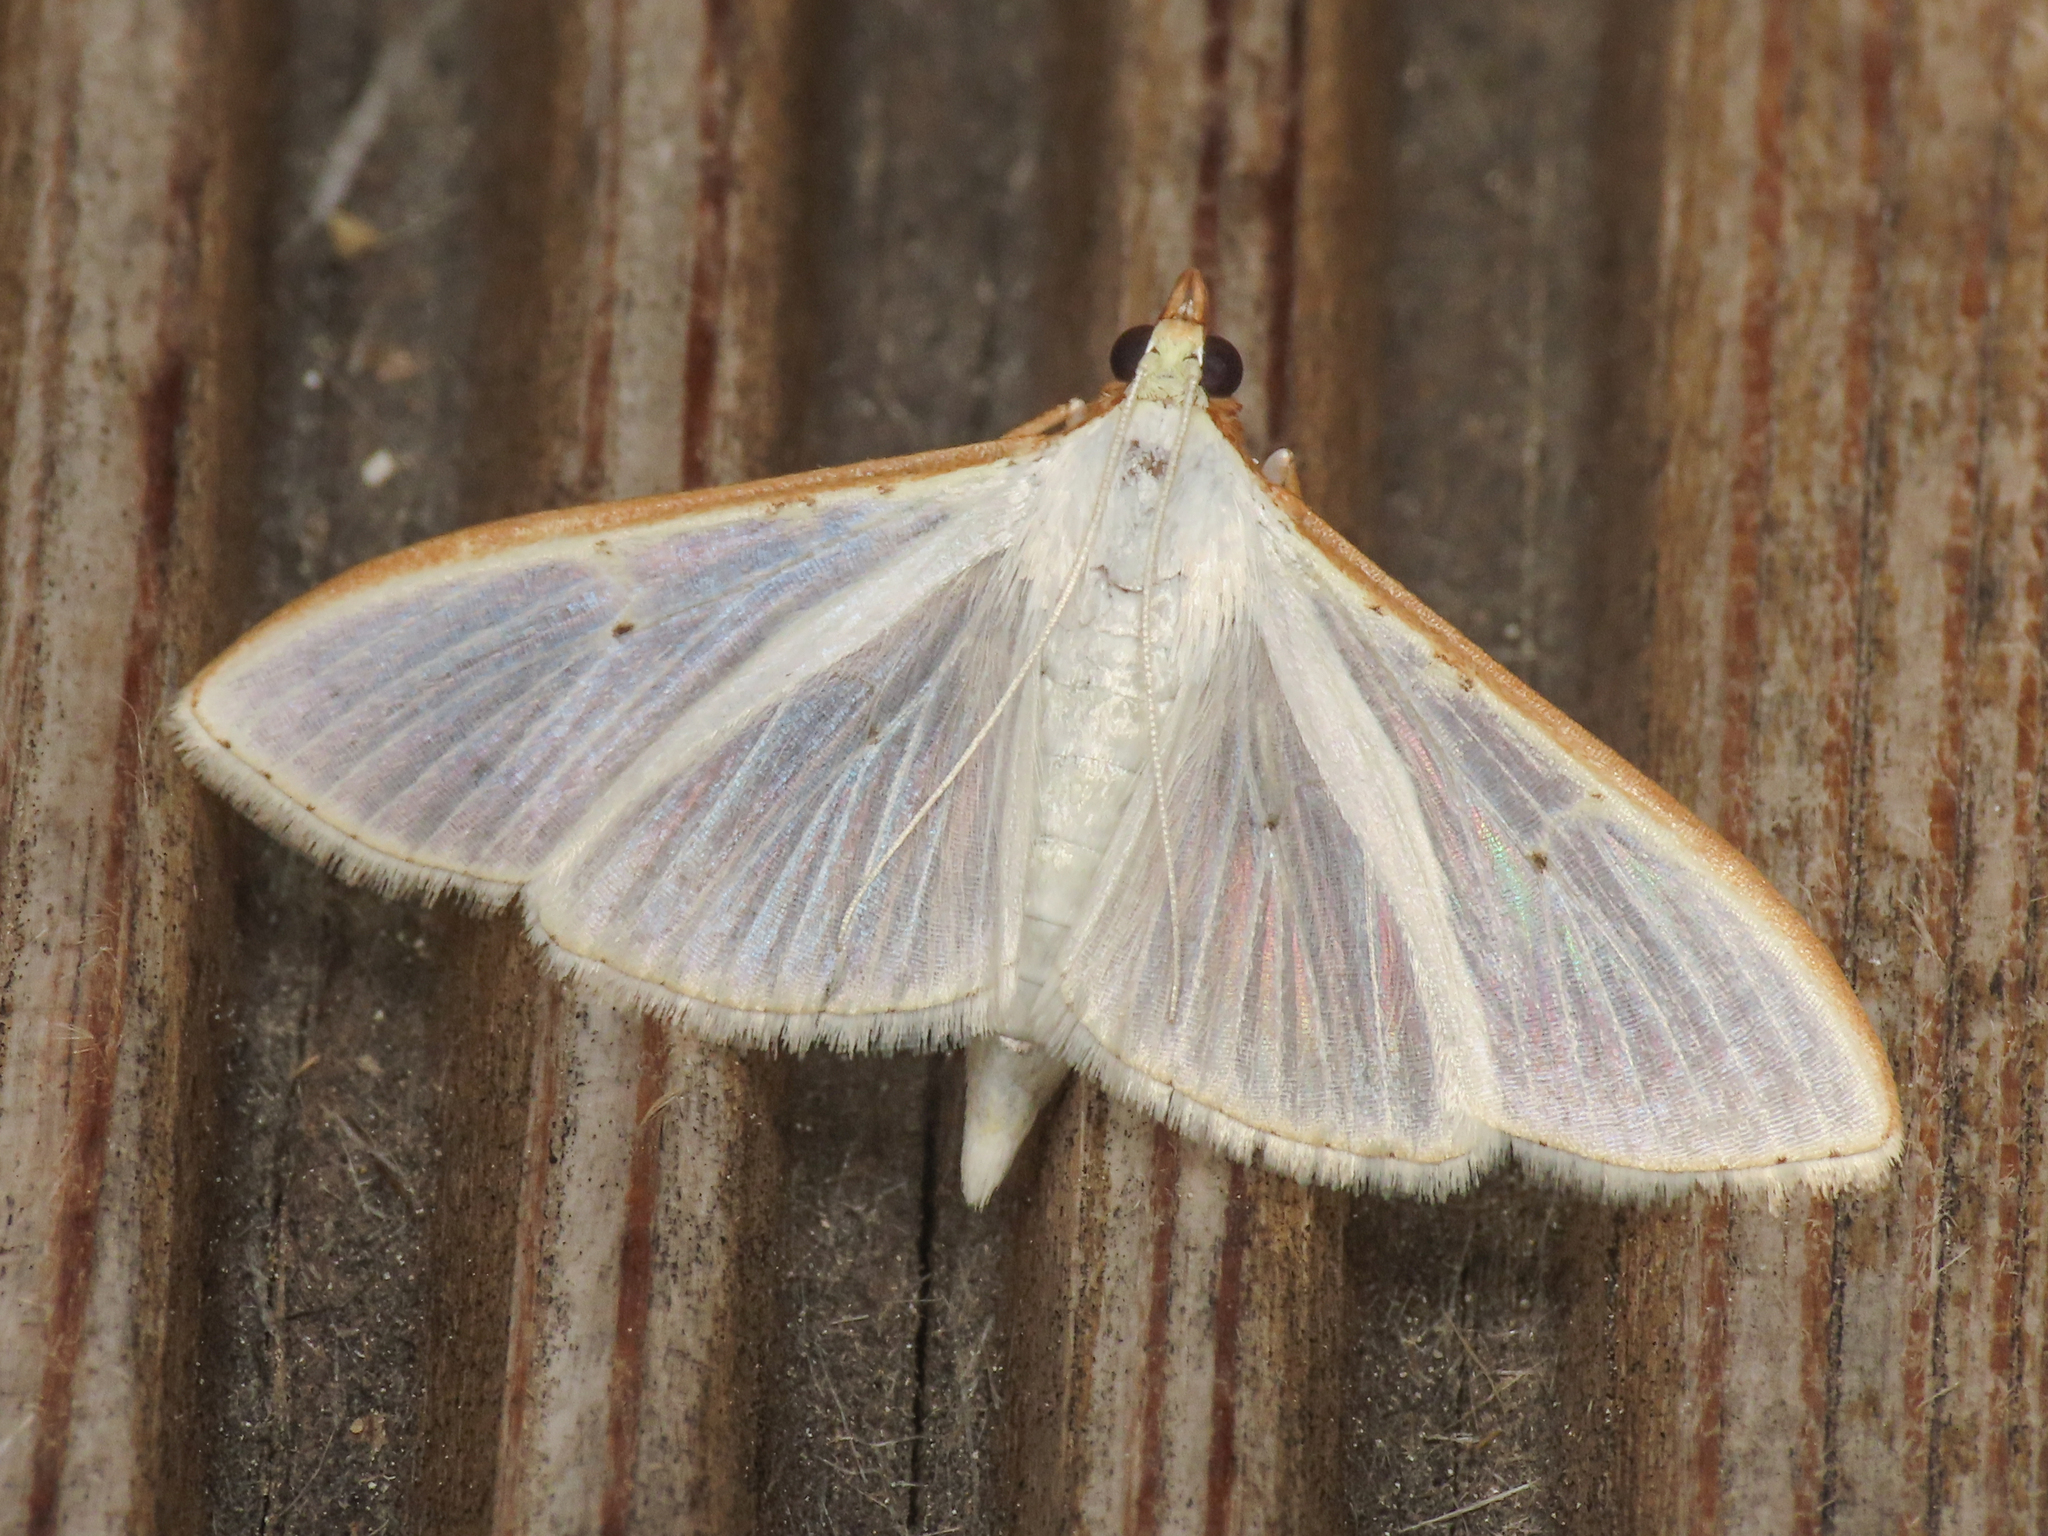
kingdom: Animalia
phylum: Arthropoda
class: Insecta
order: Lepidoptera
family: Crambidae
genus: Palpita
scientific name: Palpita vitrealis
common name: Olive-tree pearl
